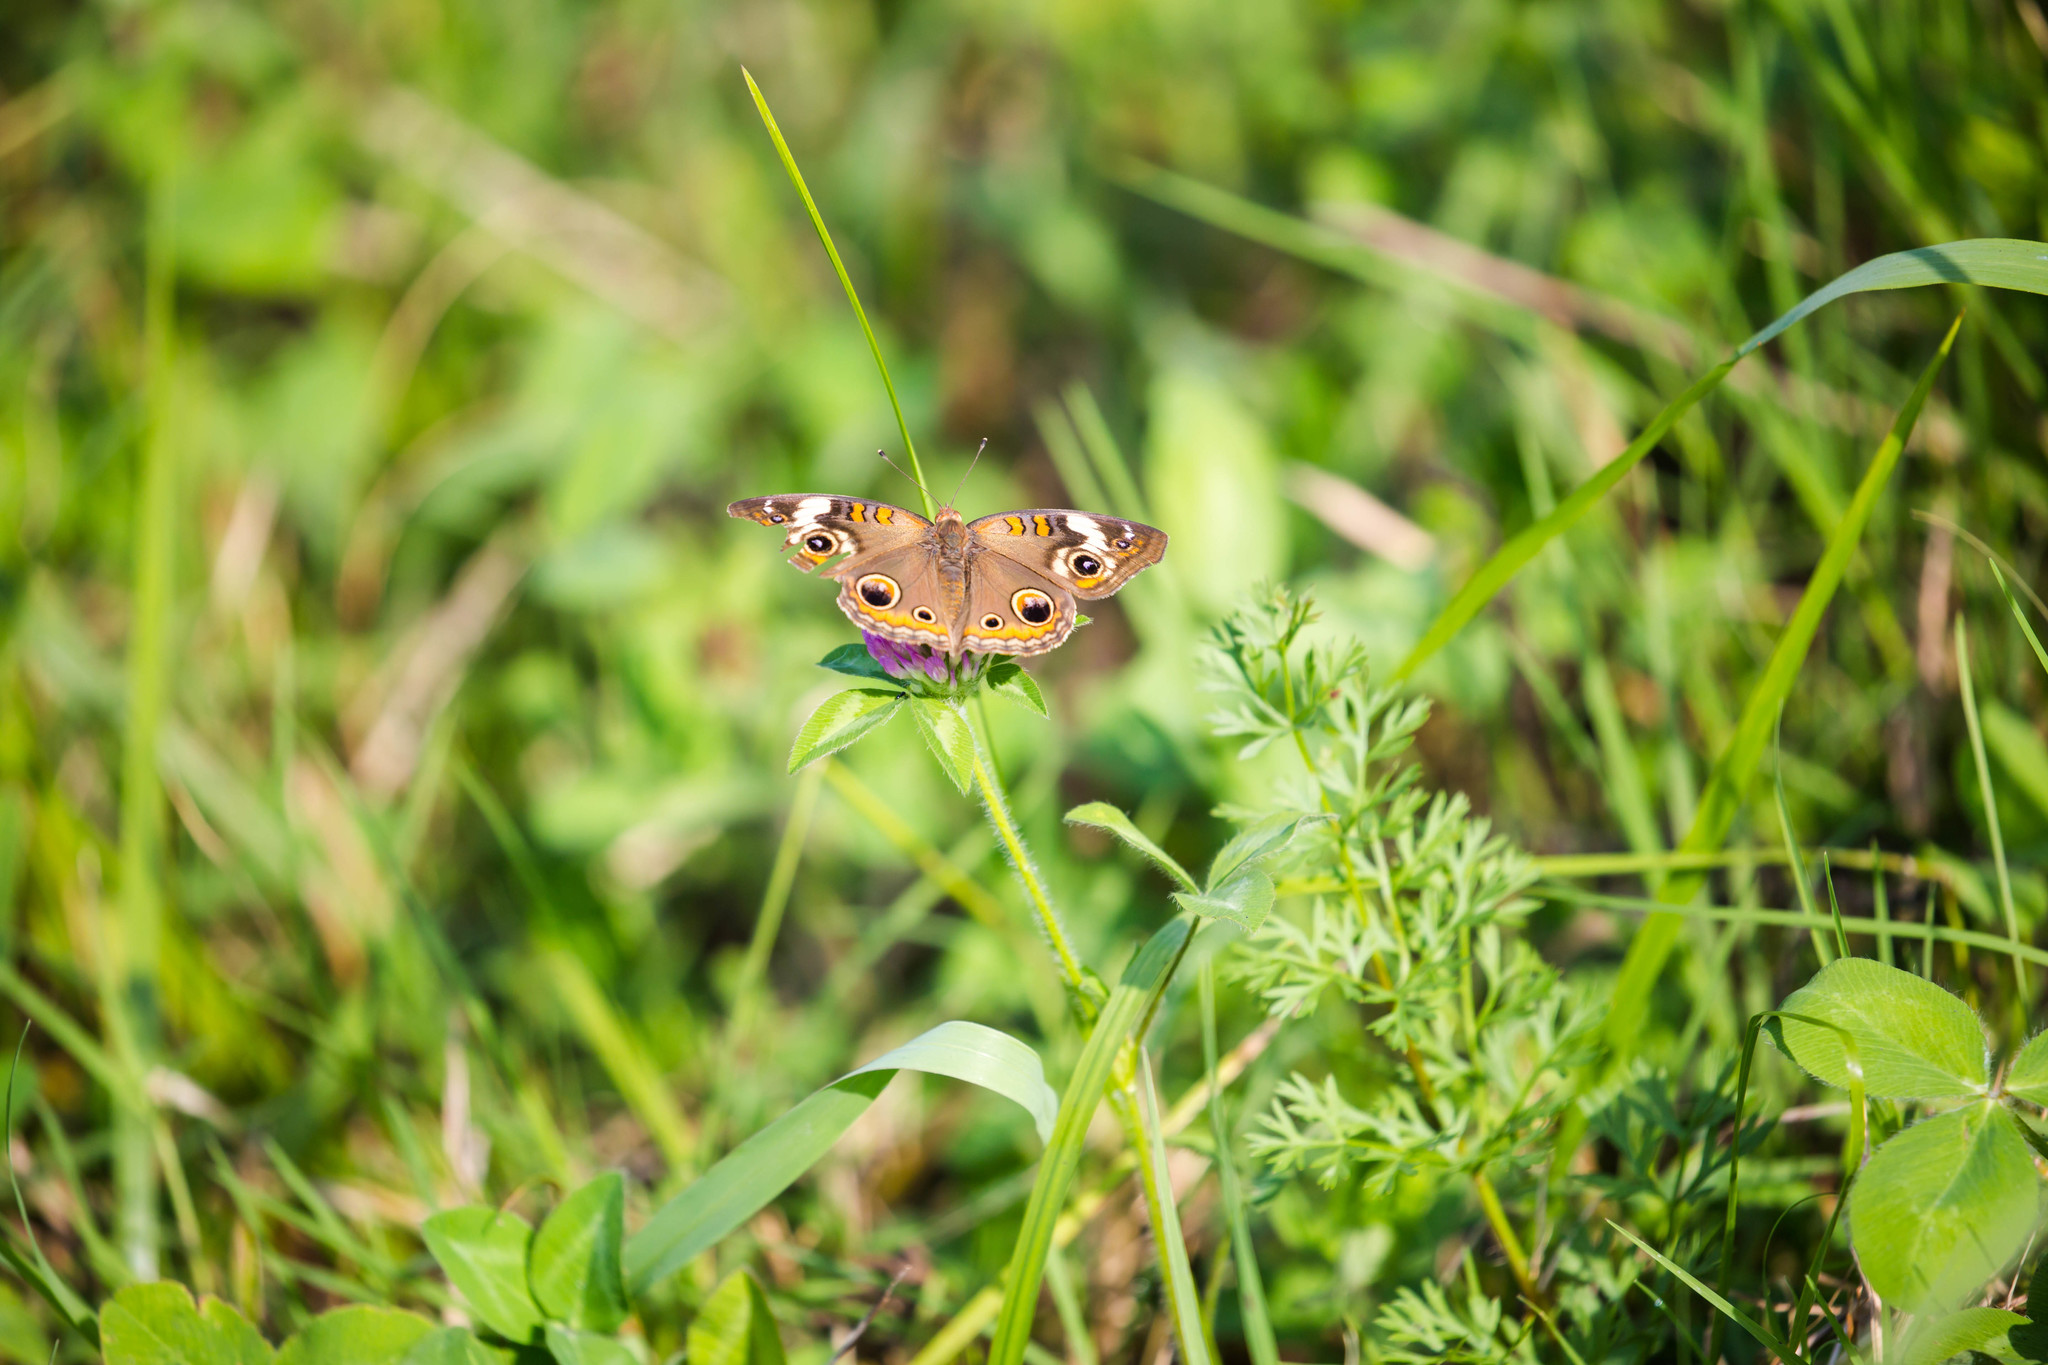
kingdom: Animalia
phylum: Arthropoda
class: Insecta
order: Lepidoptera
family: Nymphalidae
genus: Junonia
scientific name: Junonia coenia
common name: Common buckeye
